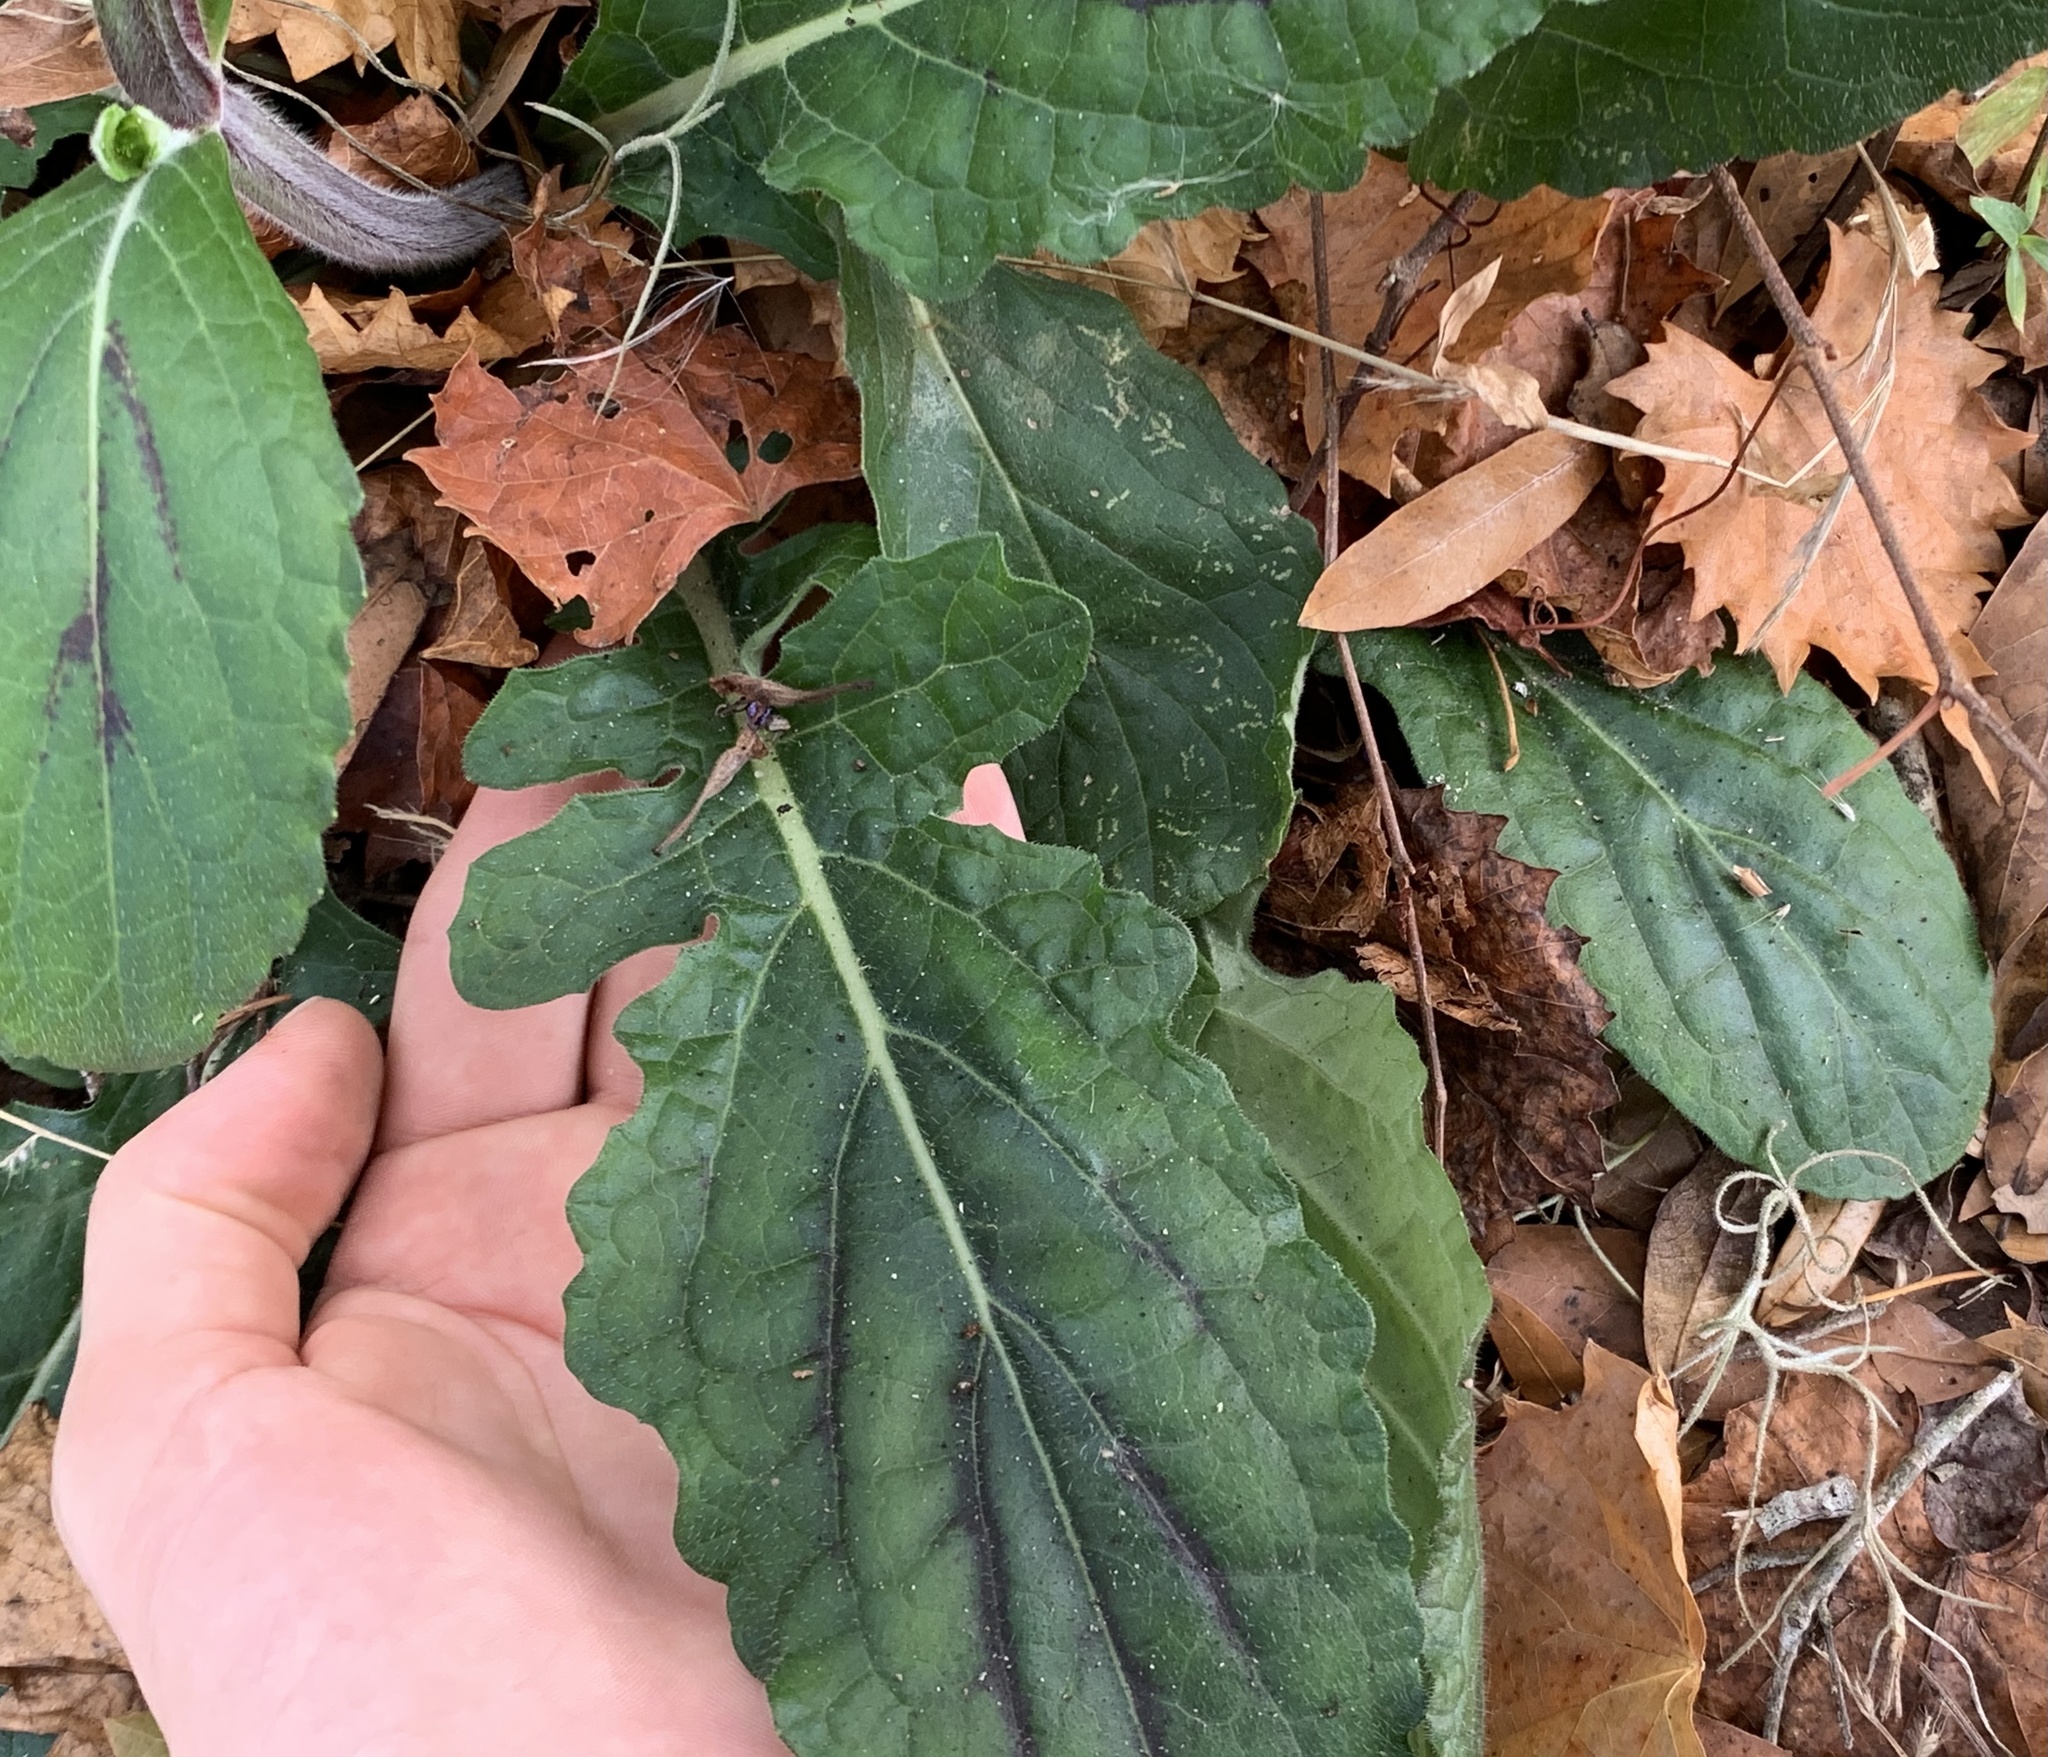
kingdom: Plantae
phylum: Tracheophyta
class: Magnoliopsida
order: Lamiales
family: Lamiaceae
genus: Salvia
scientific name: Salvia lyrata
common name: Cancerweed
